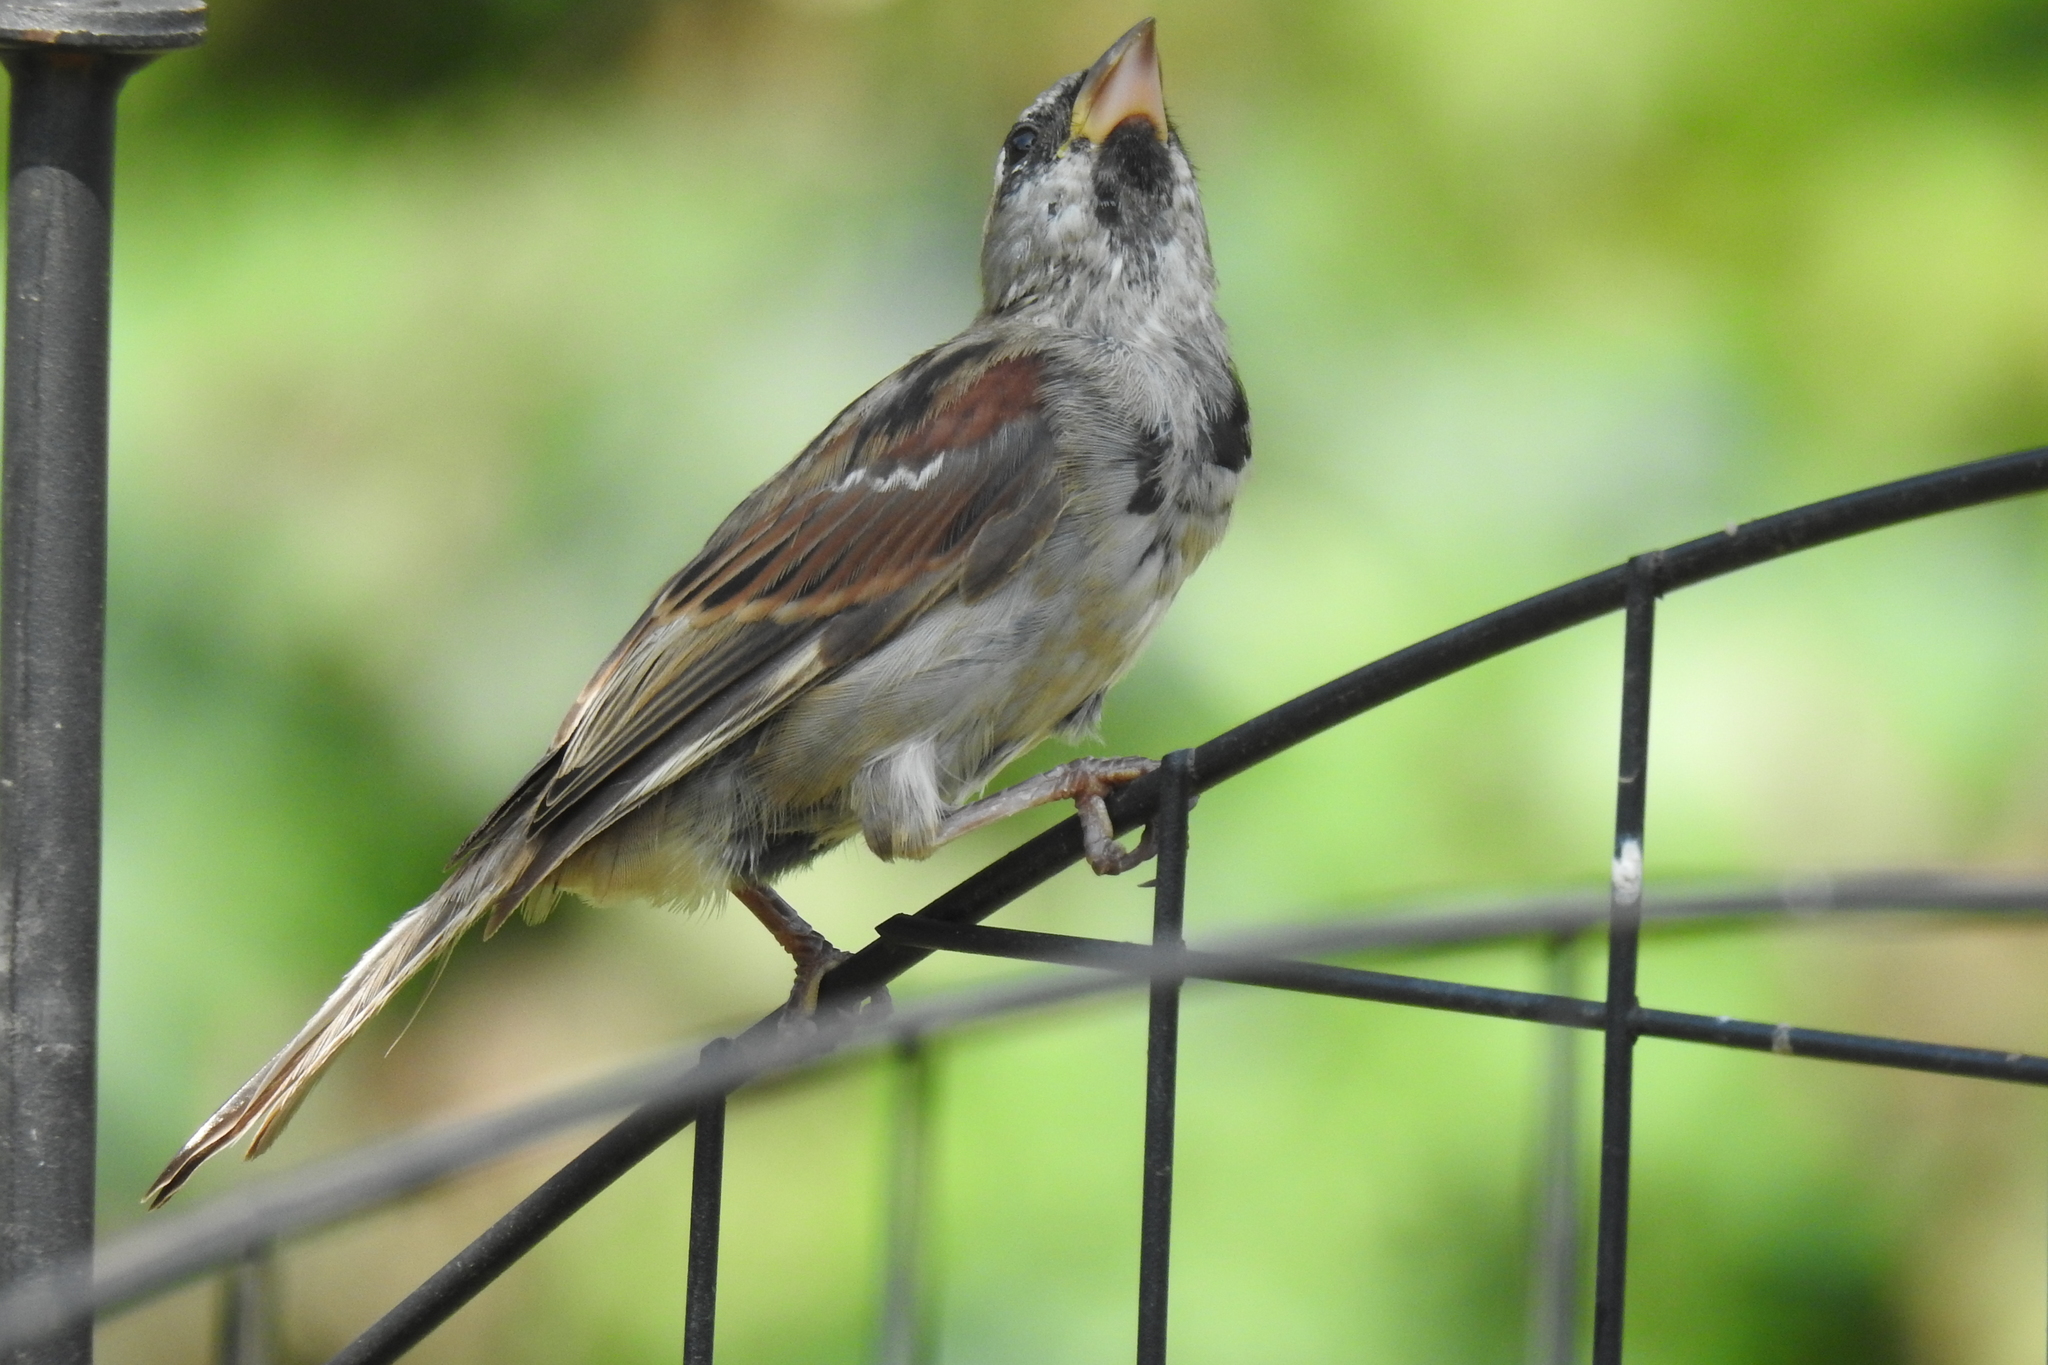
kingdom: Animalia
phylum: Chordata
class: Aves
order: Passeriformes
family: Passeridae
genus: Passer
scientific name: Passer domesticus
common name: House sparrow
